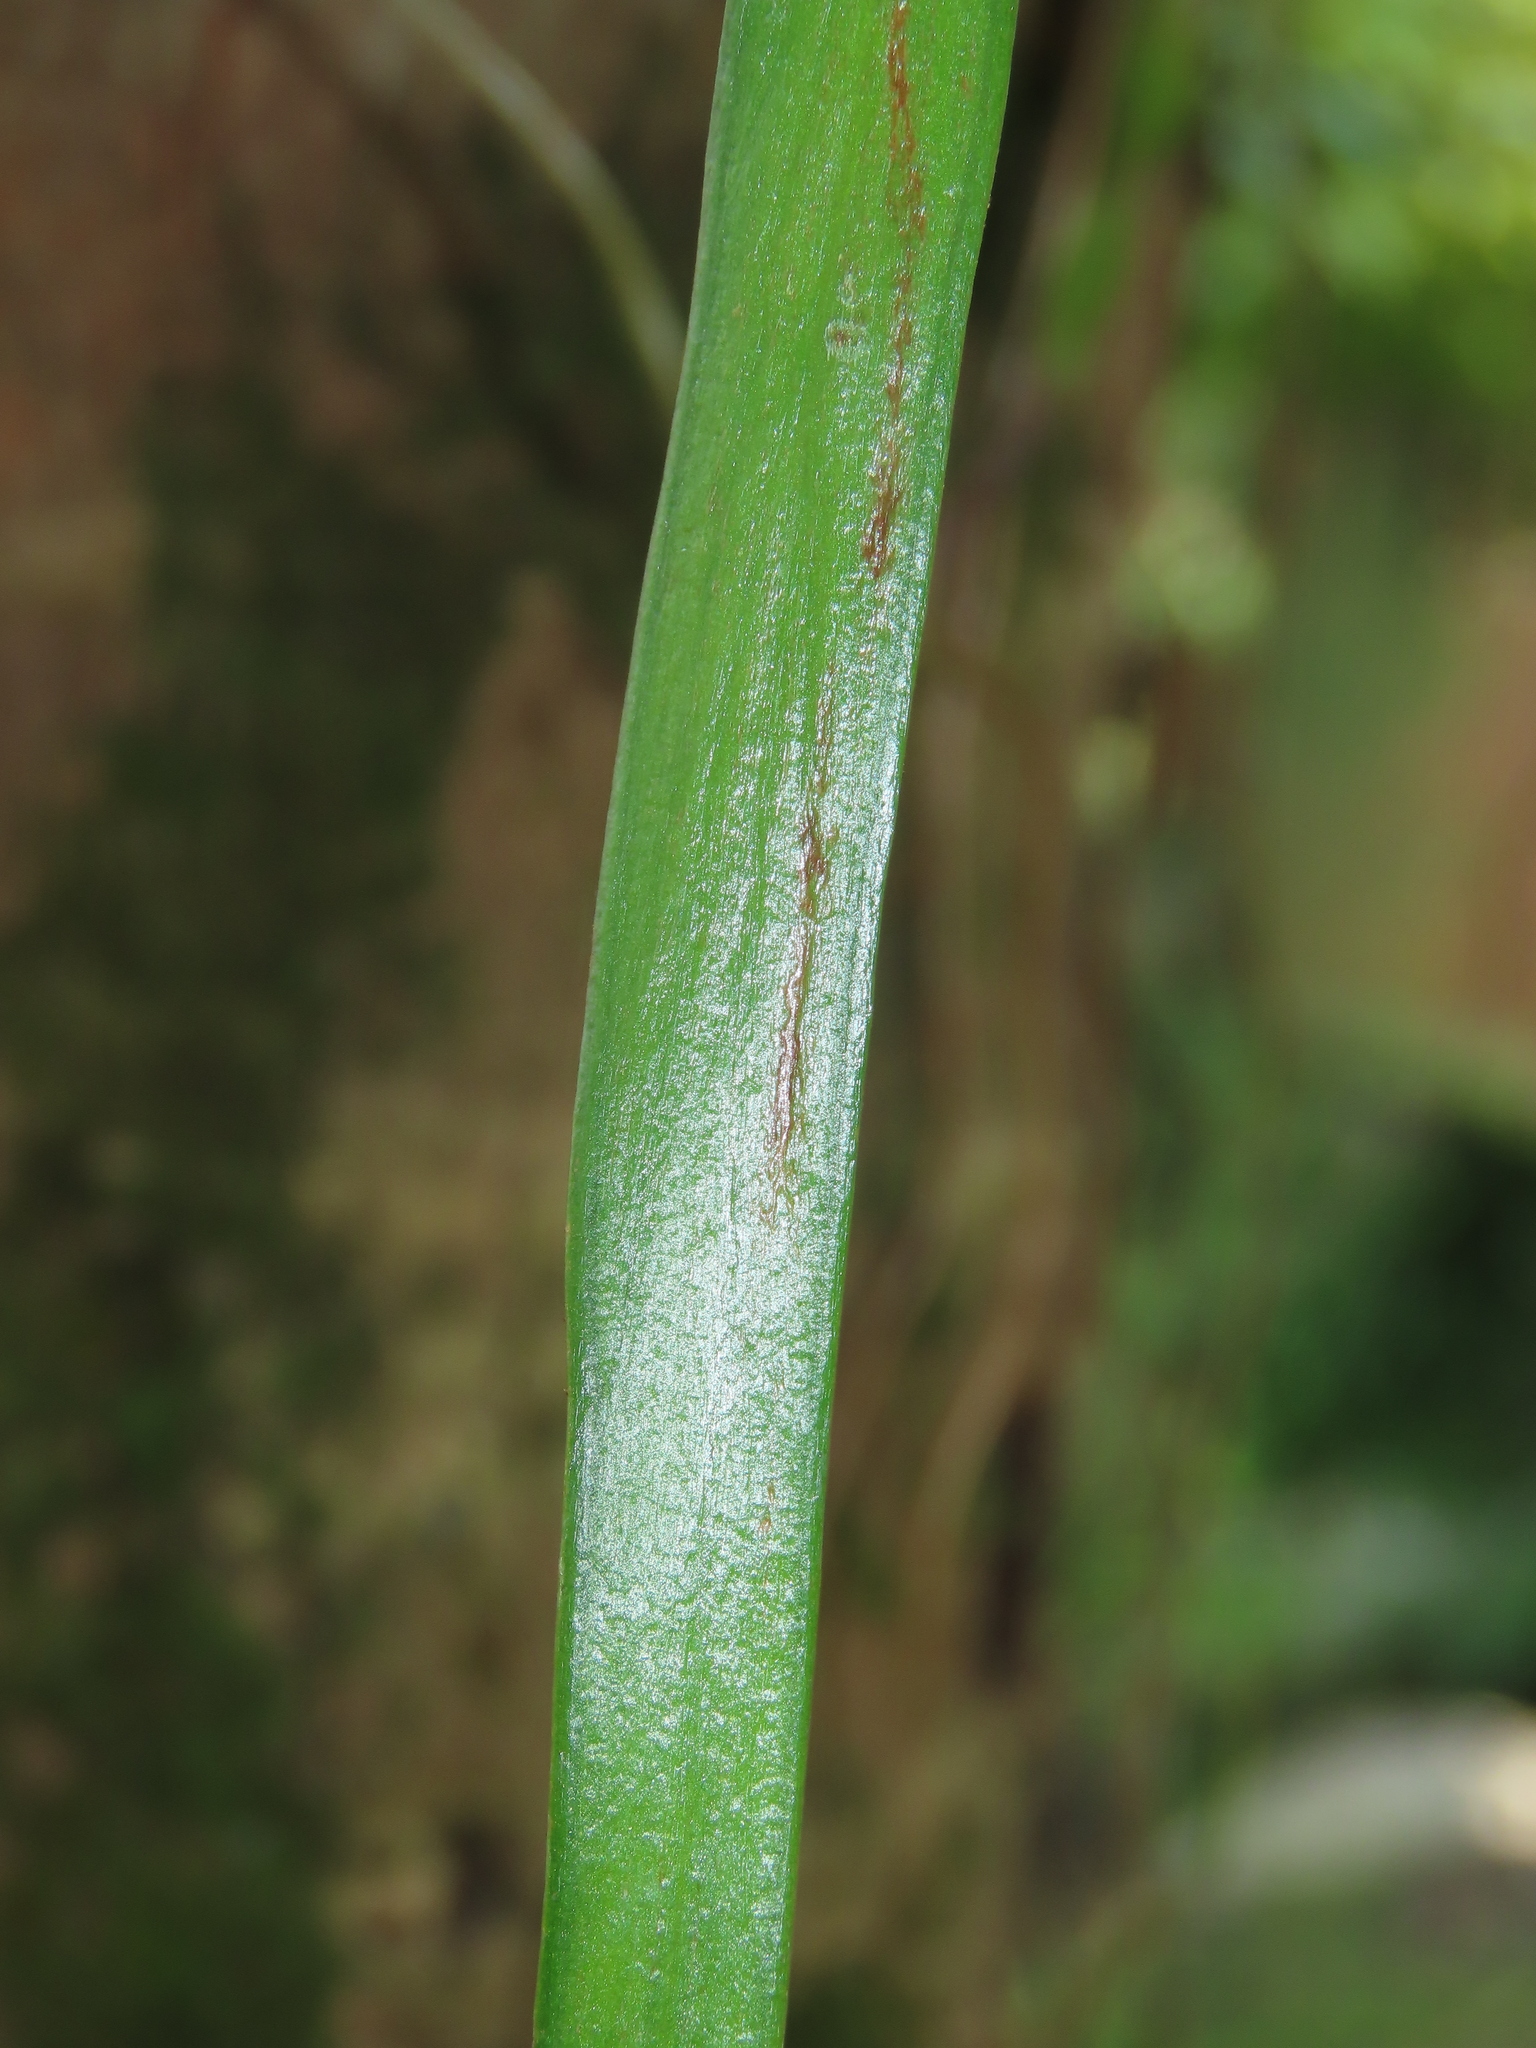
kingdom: Plantae
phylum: Tracheophyta
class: Polypodiopsida
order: Polypodiales
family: Pteridaceae
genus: Haplopteris
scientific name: Haplopteris elongata
